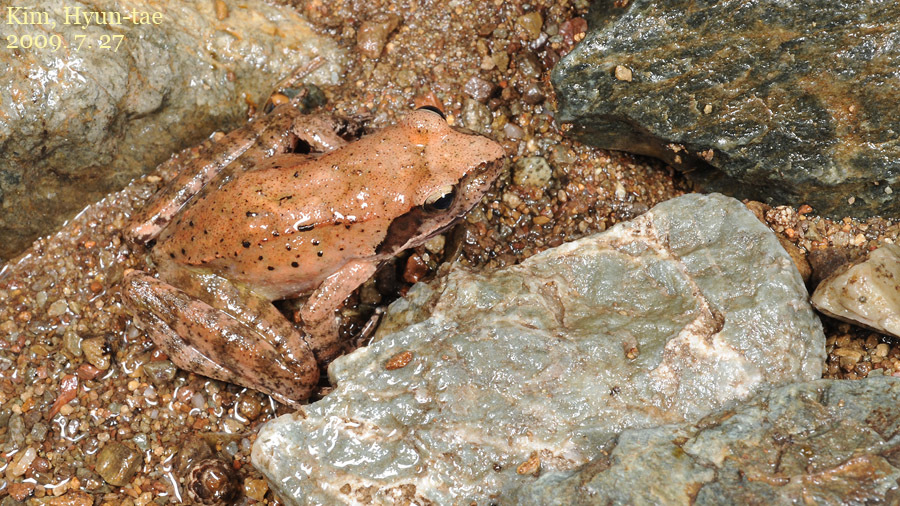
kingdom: Animalia
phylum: Chordata
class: Amphibia
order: Anura
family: Ranidae
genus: Rana
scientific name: Rana huanrenensis
